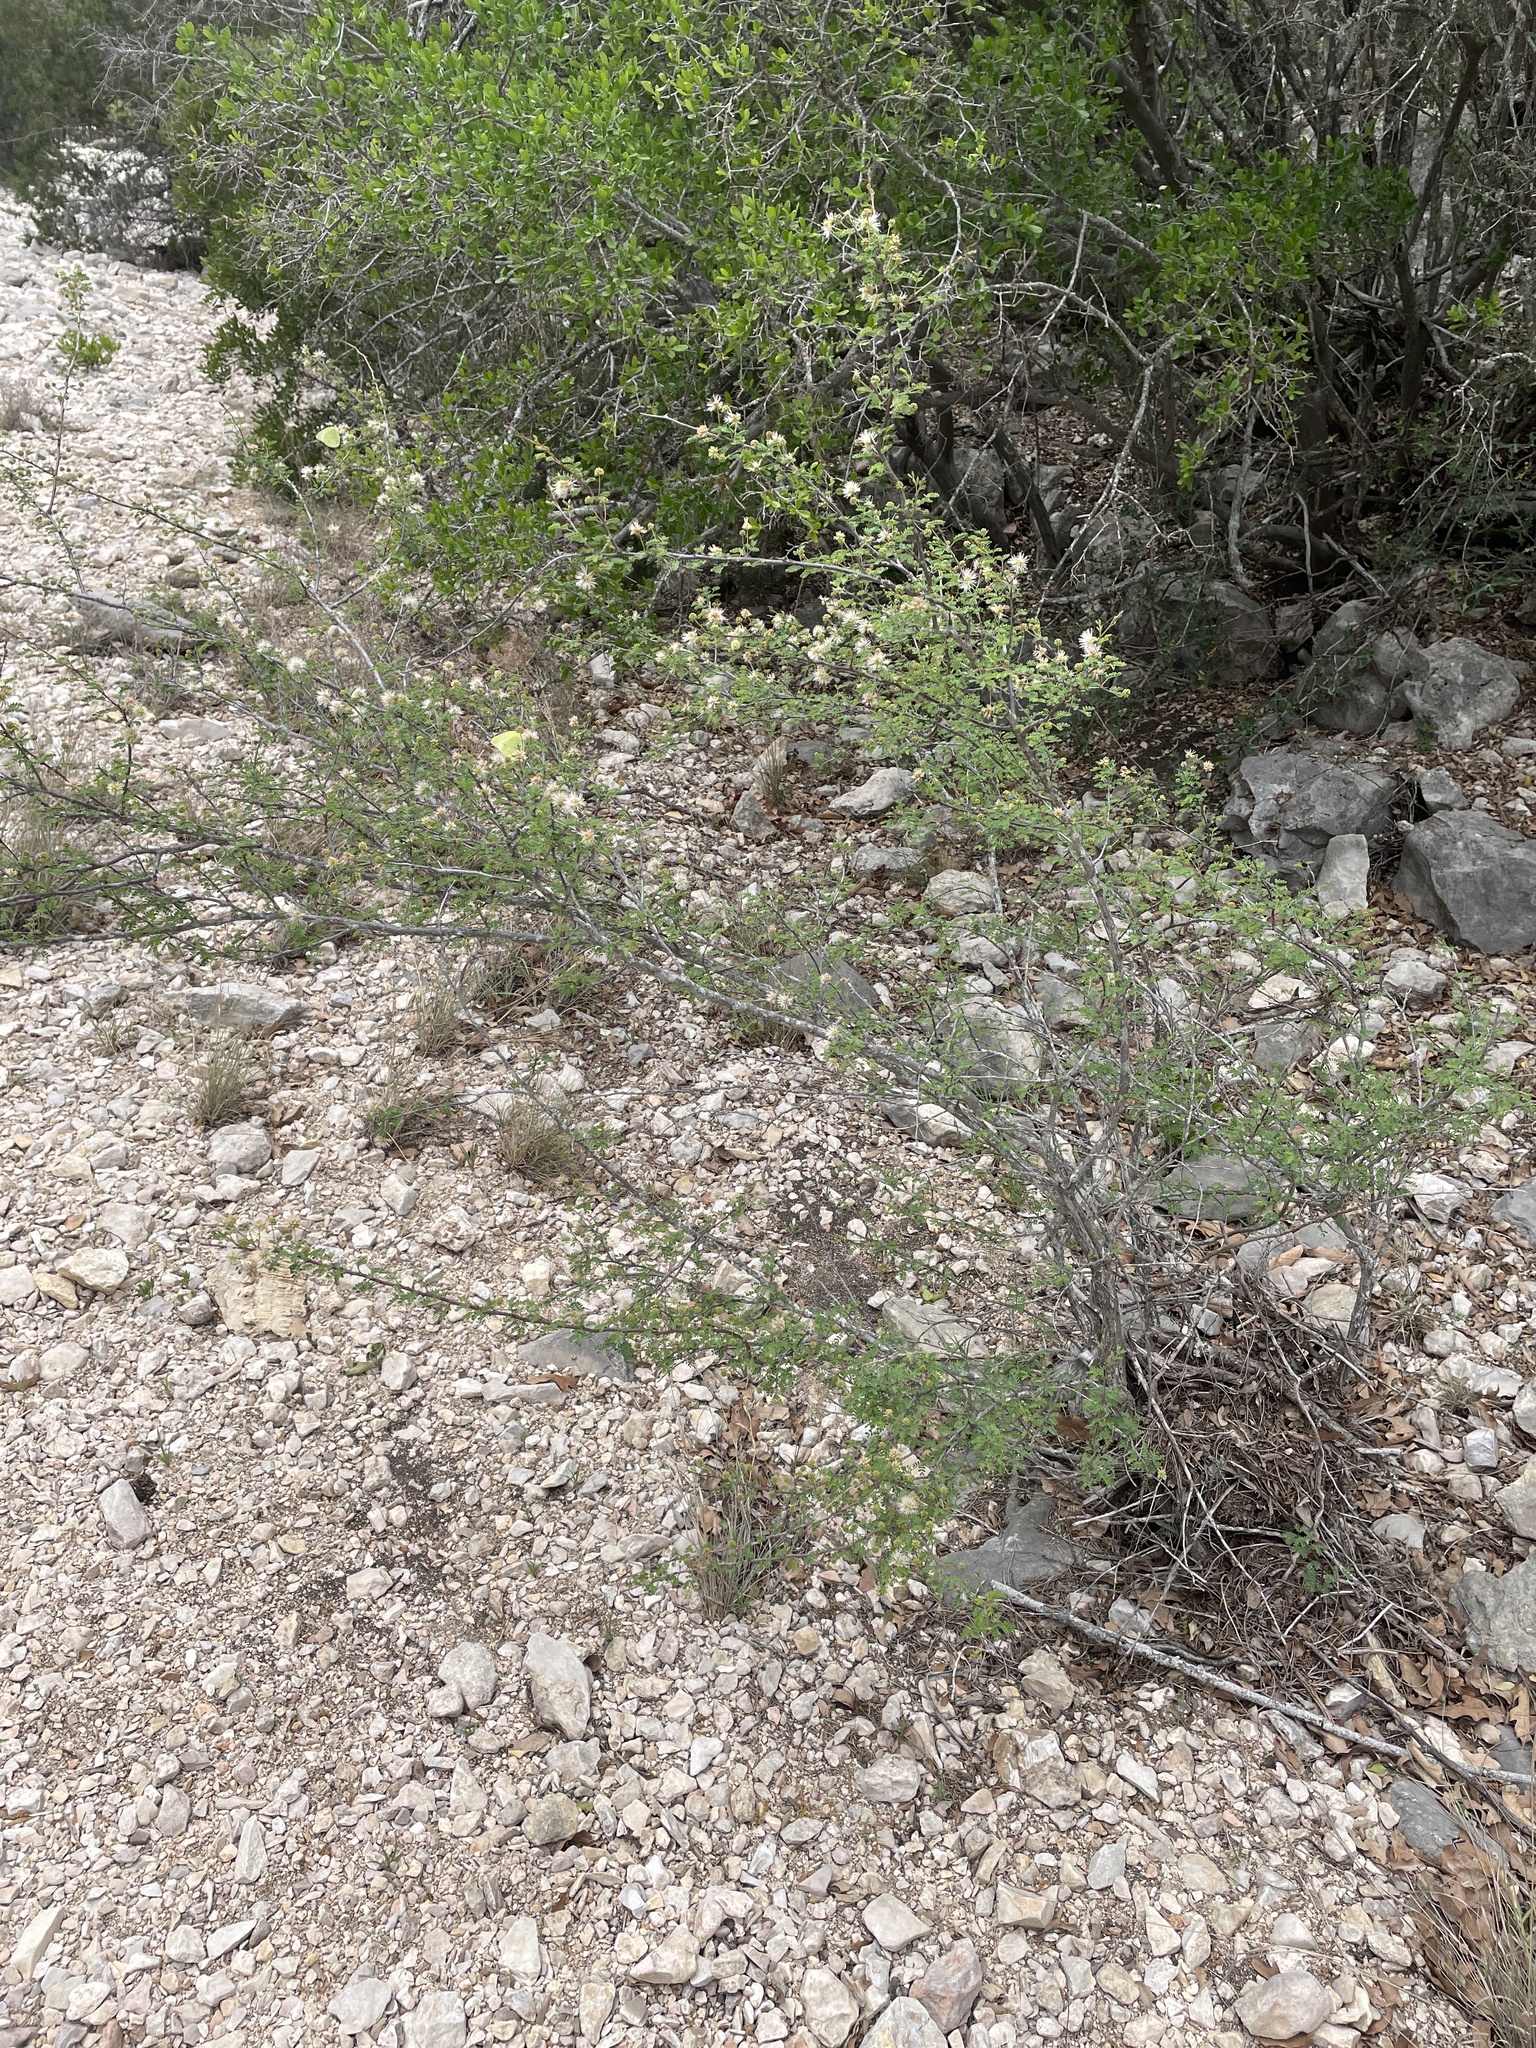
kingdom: Plantae
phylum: Tracheophyta
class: Magnoliopsida
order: Fabales
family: Fabaceae
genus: Mimosa
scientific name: Mimosa texana
